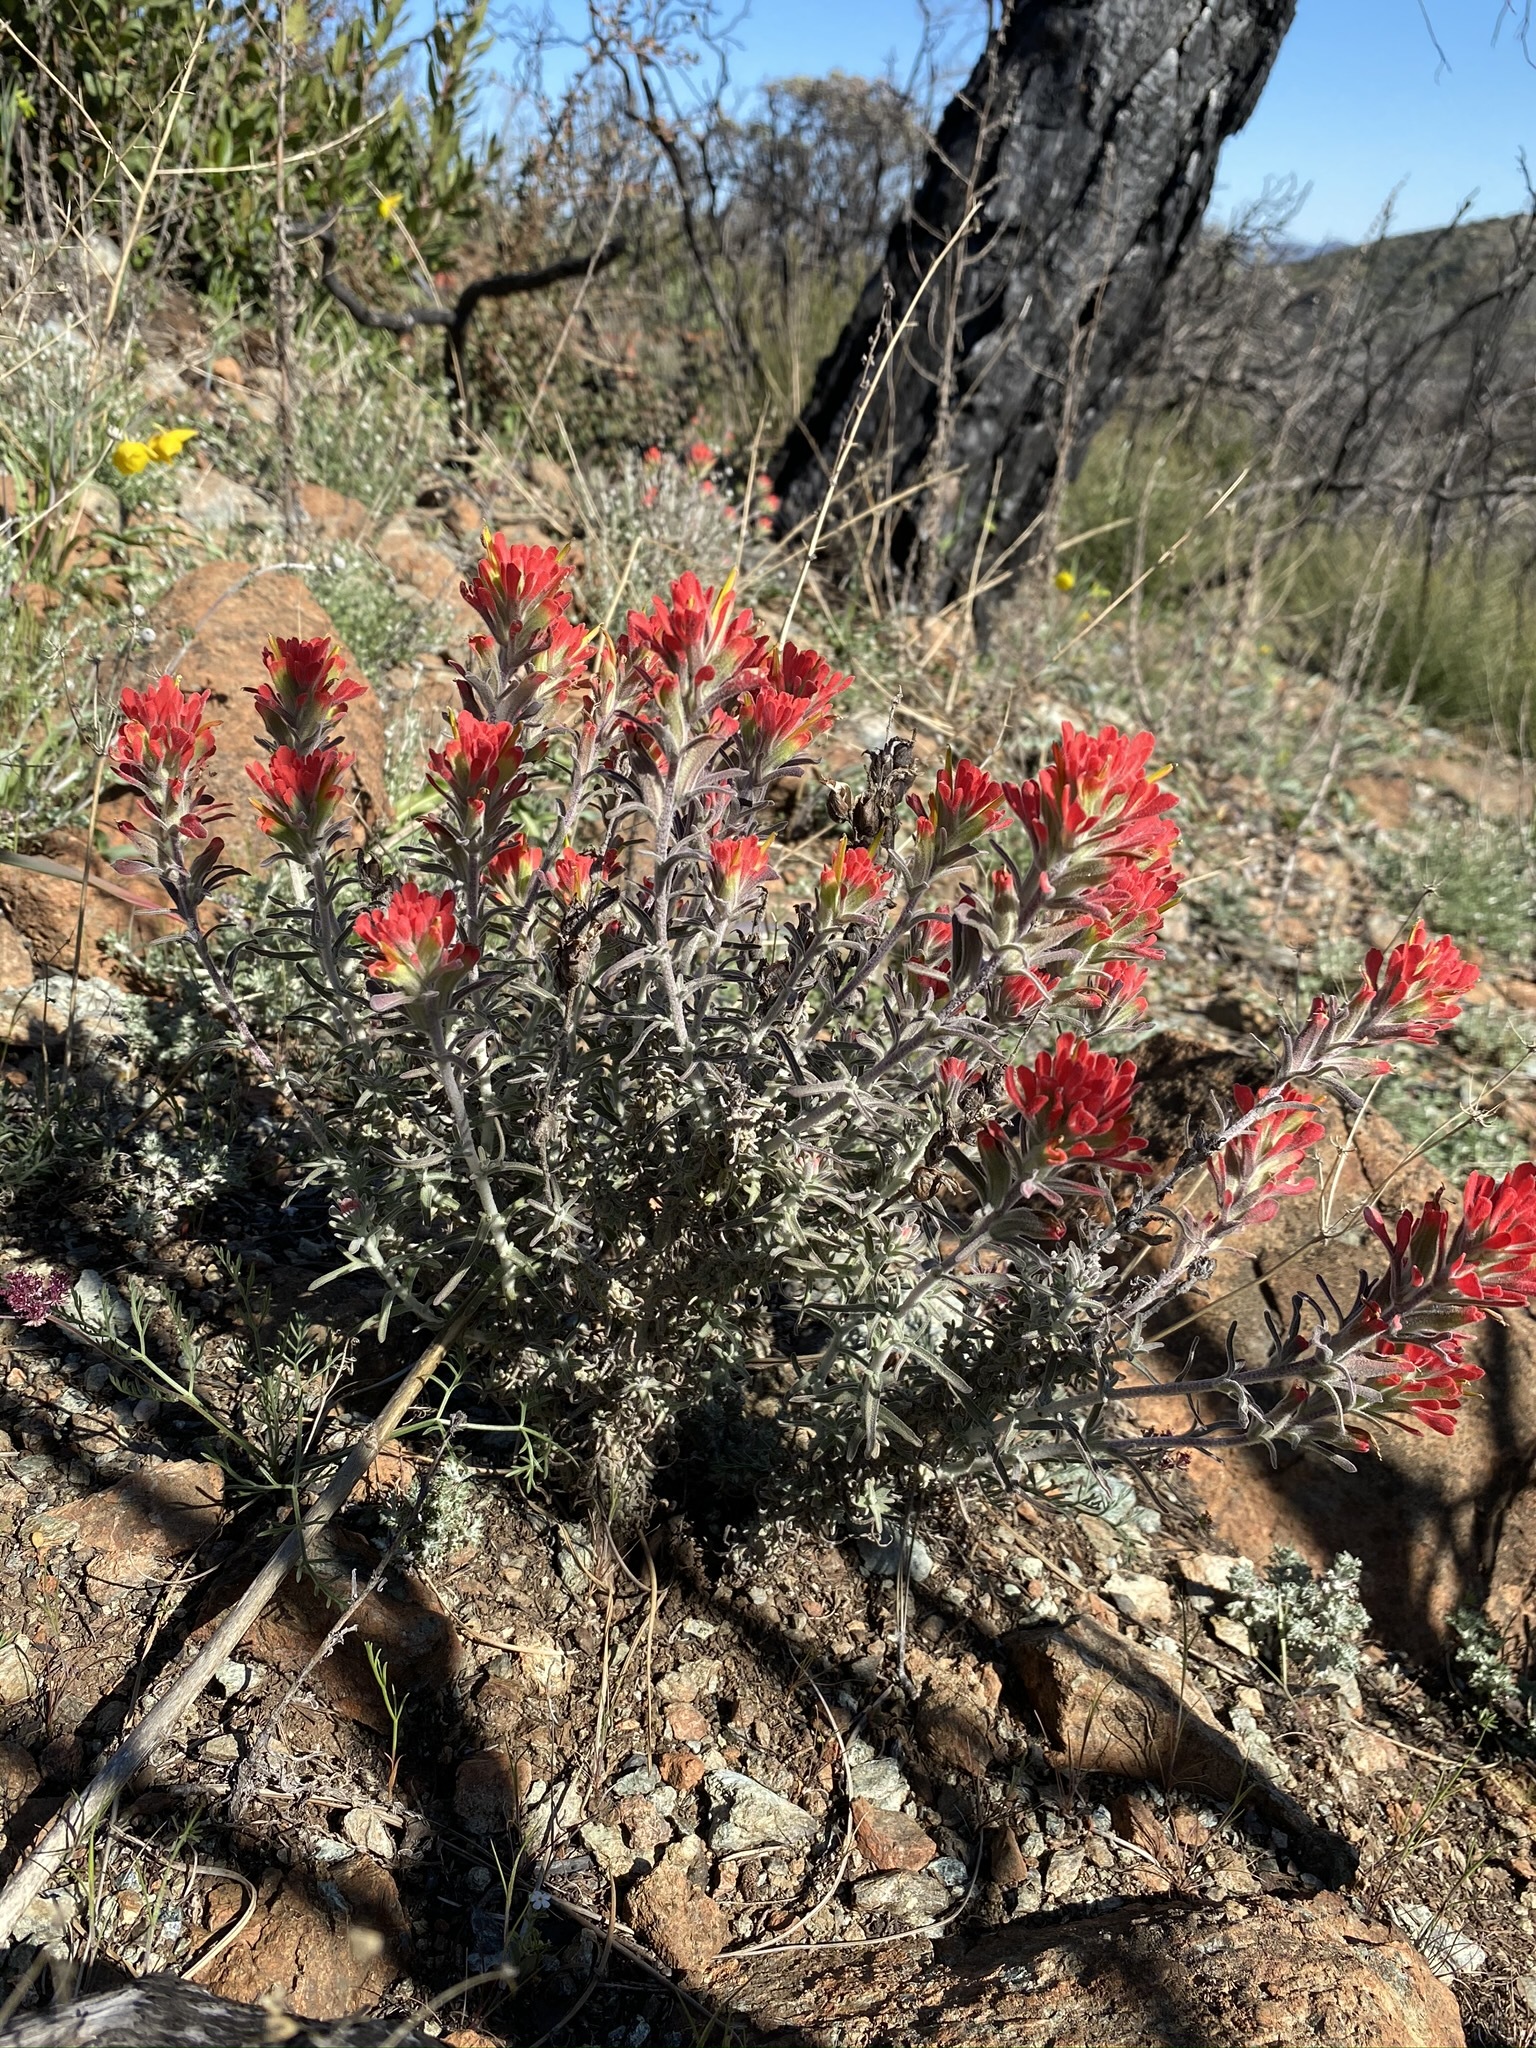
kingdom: Plantae
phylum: Tracheophyta
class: Magnoliopsida
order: Lamiales
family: Orobanchaceae
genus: Castilleja
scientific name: Castilleja foliolosa
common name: Woolly indian paintbrush
